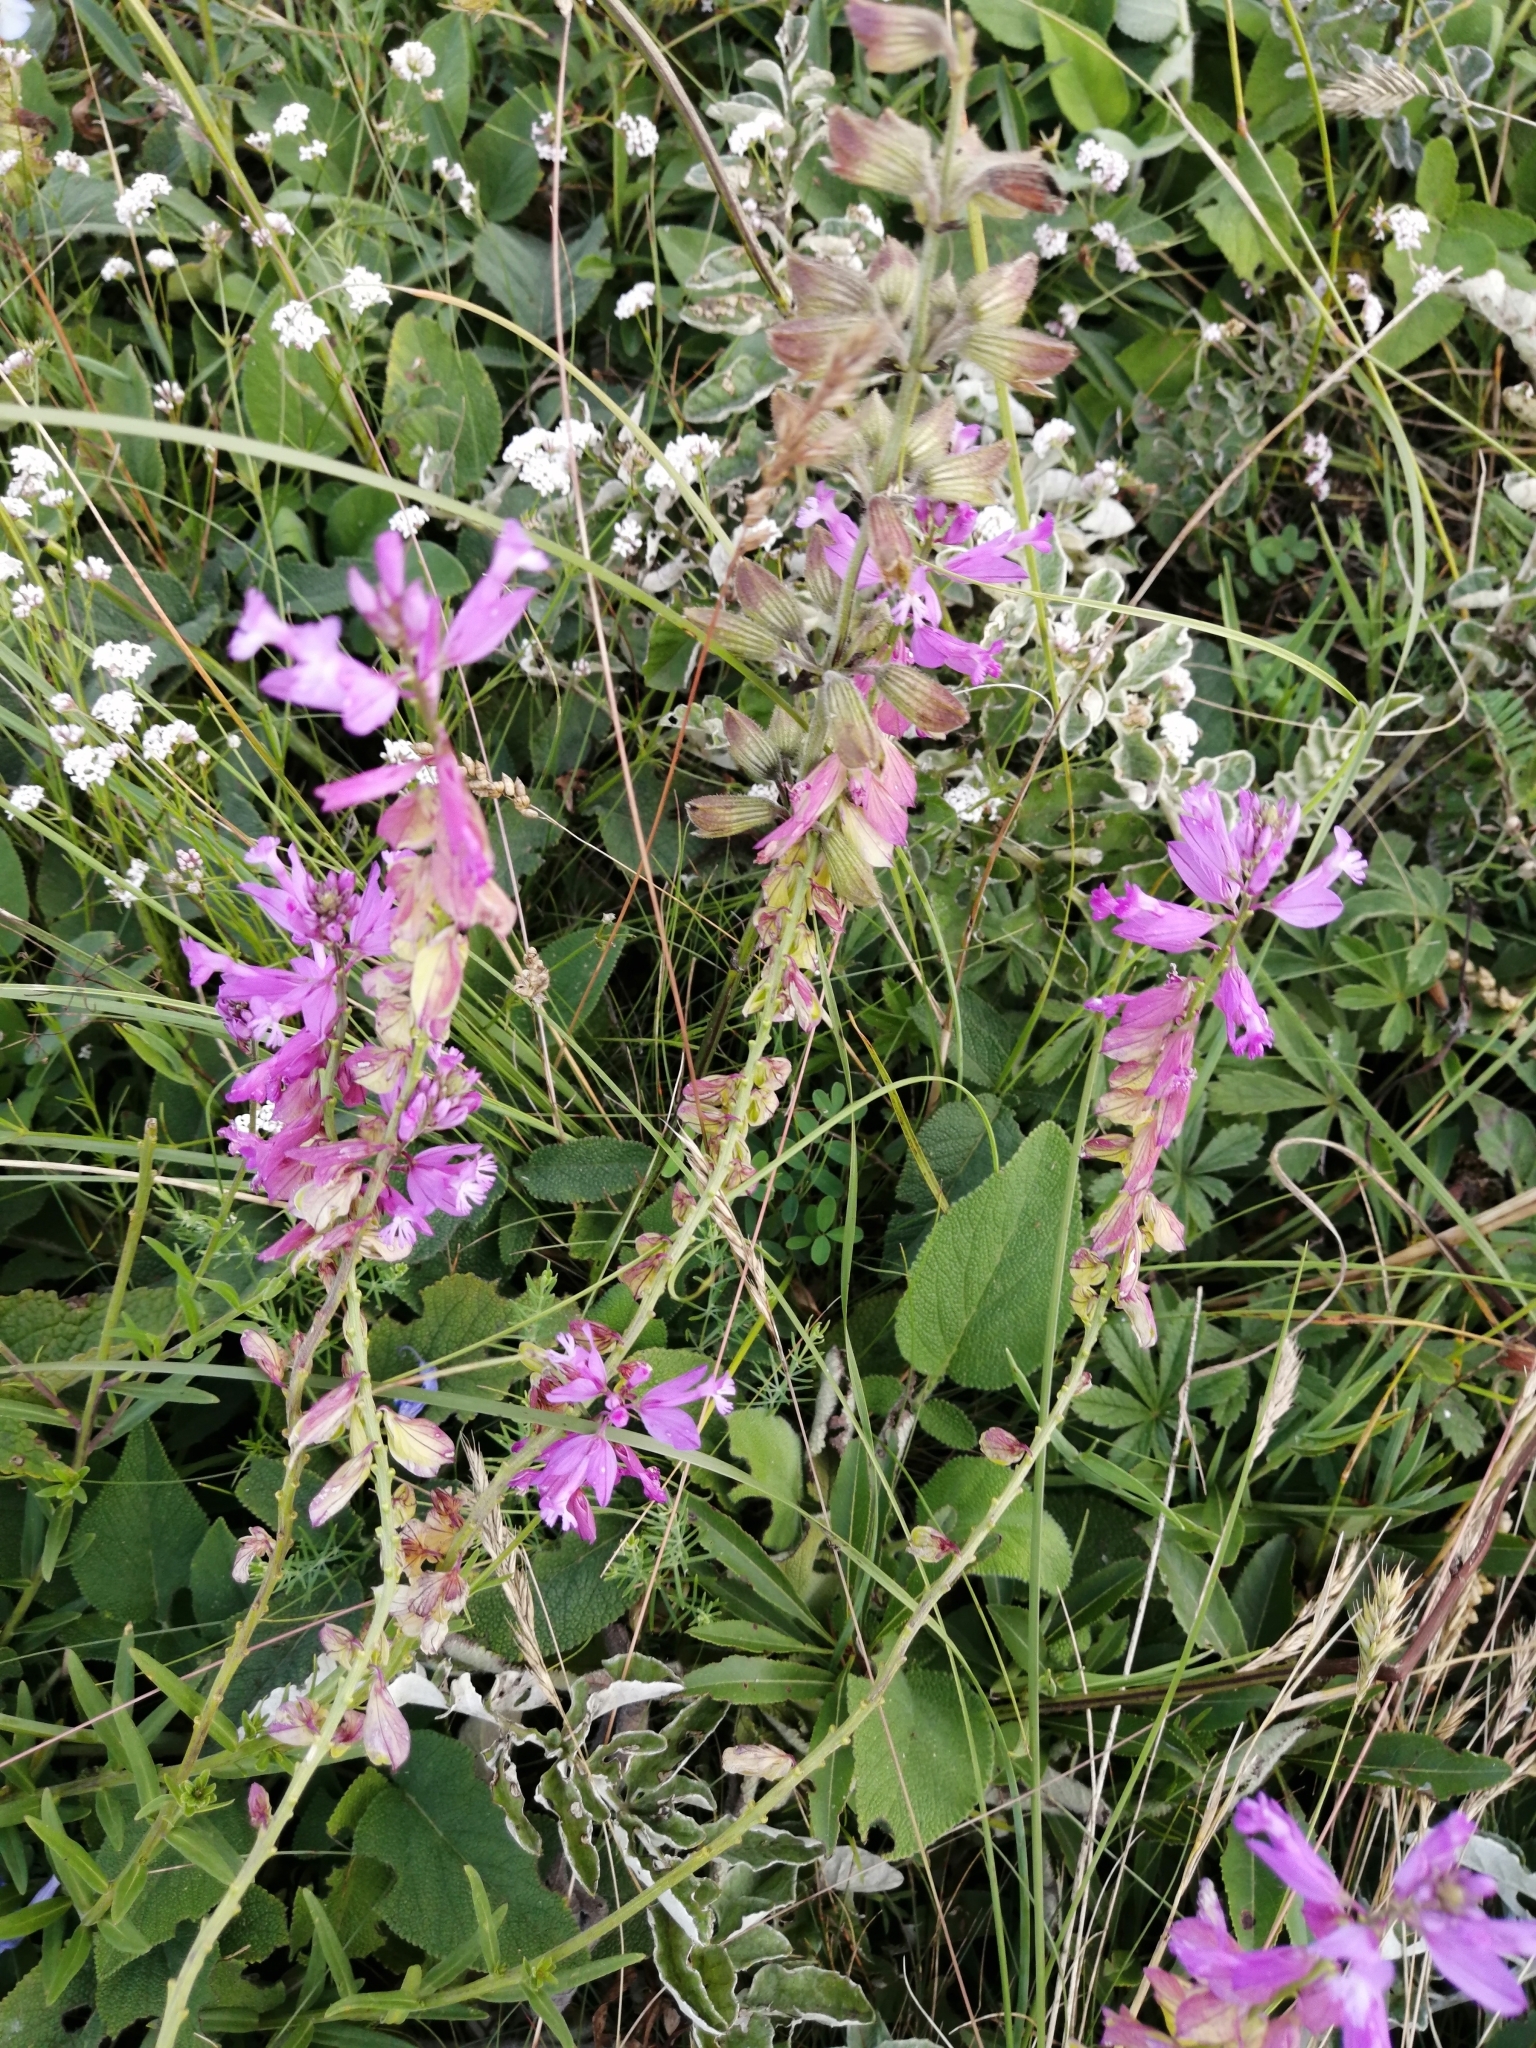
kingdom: Plantae
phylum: Tracheophyta
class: Magnoliopsida
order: Fabales
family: Polygalaceae
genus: Polygala
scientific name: Polygala major
